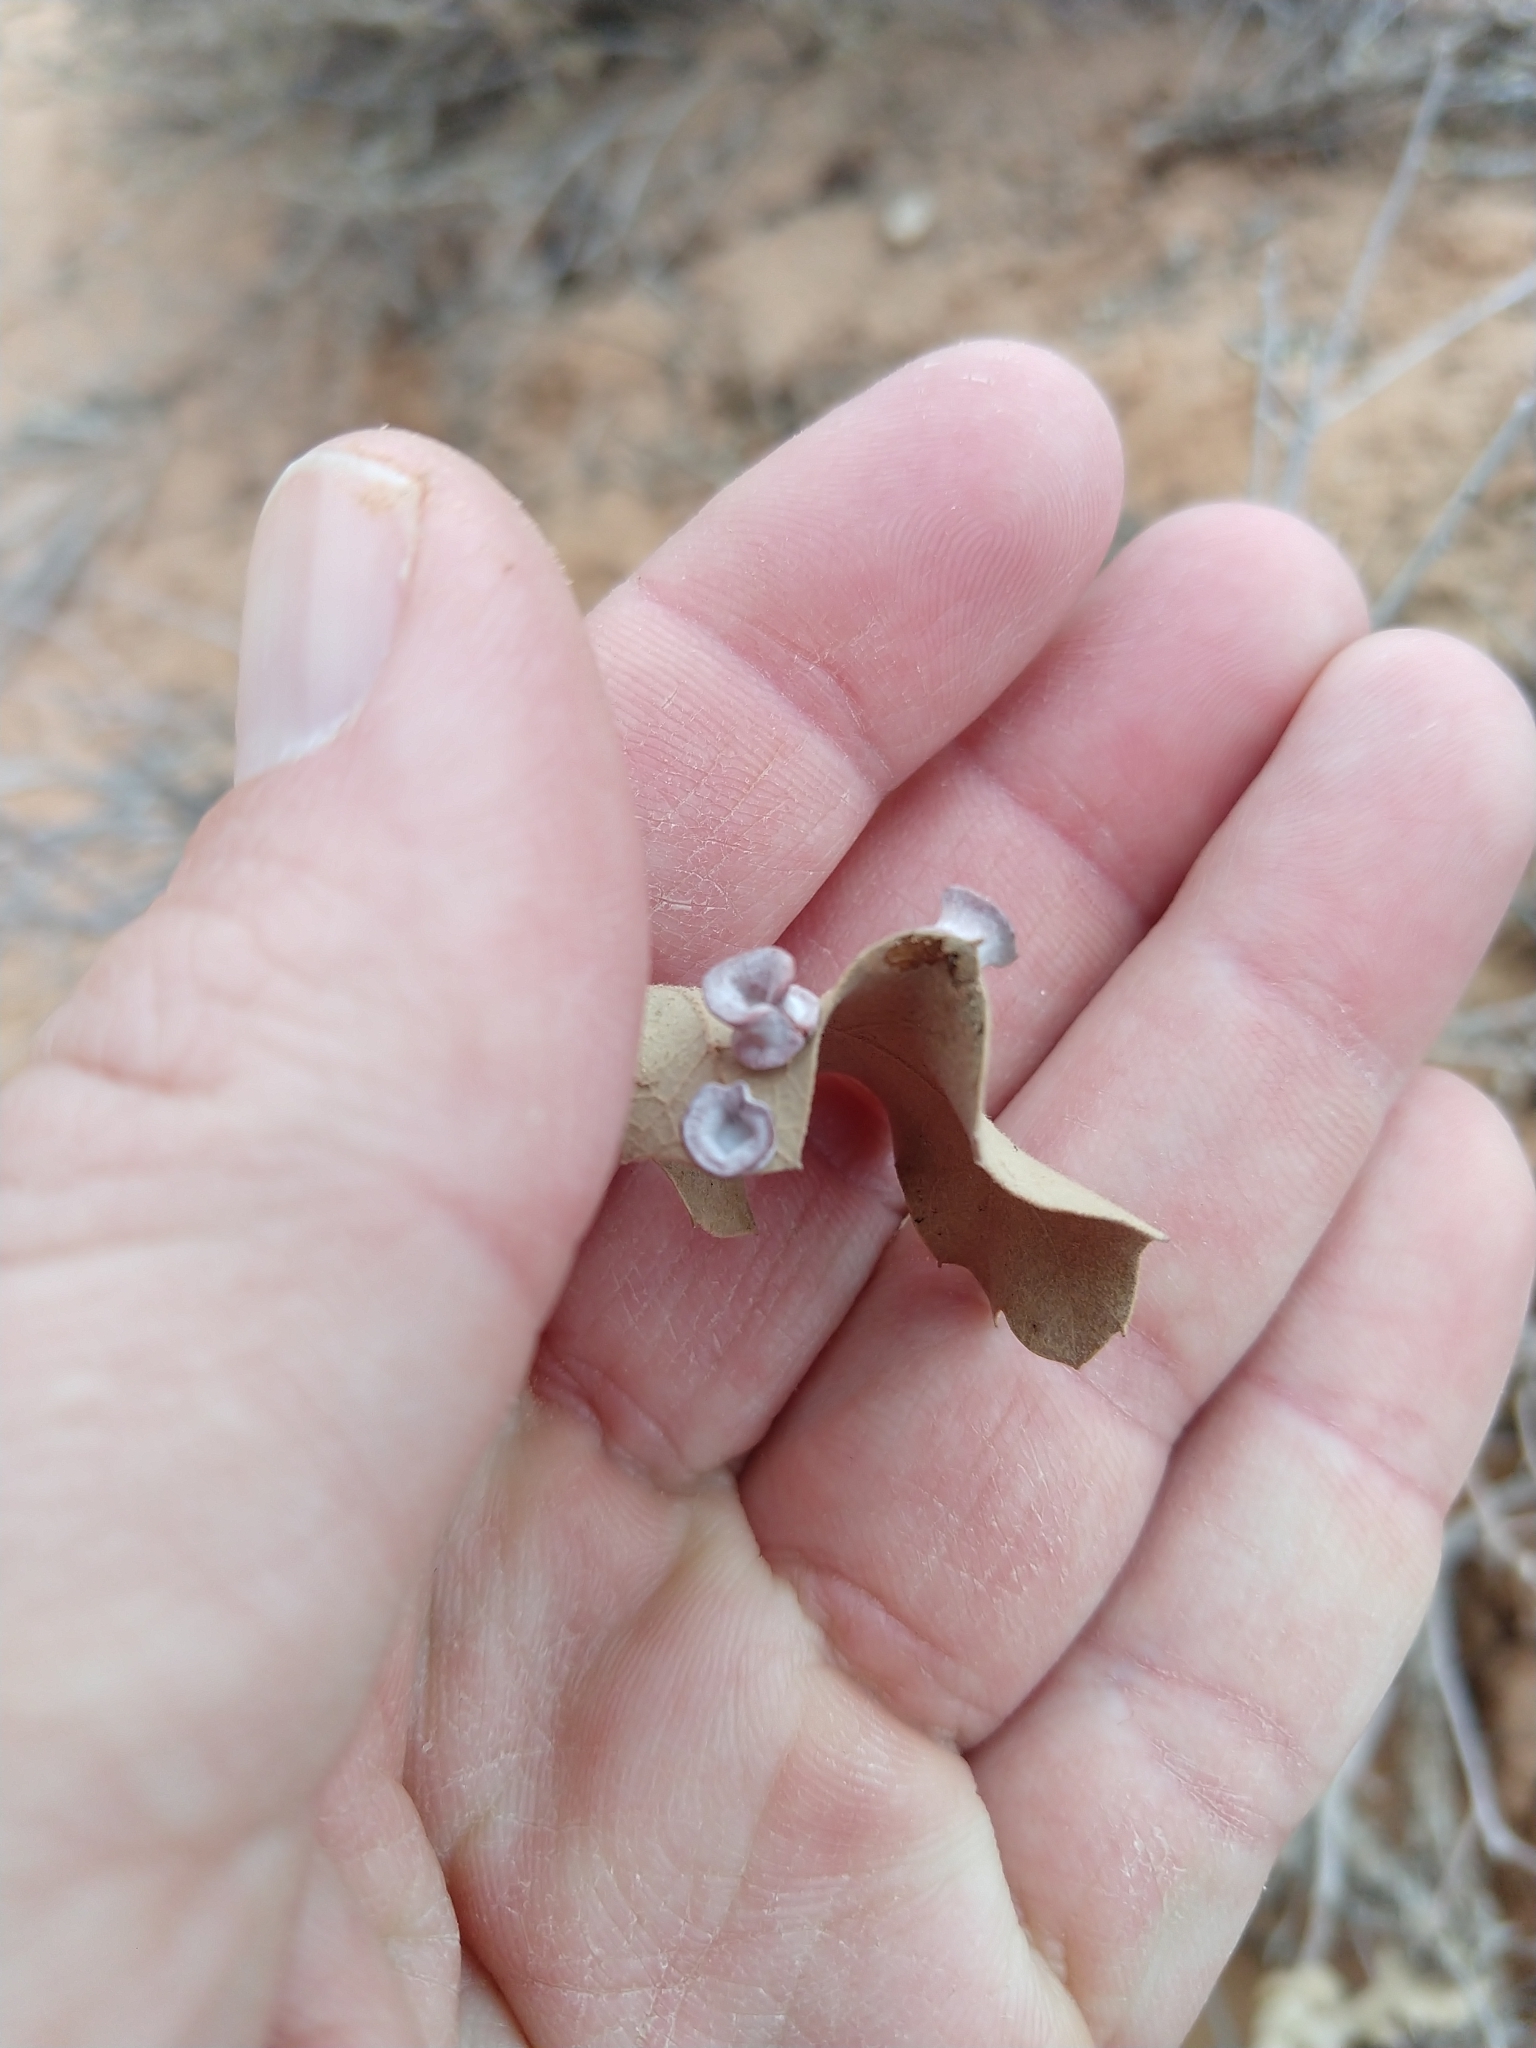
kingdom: Animalia
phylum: Arthropoda
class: Insecta
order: Hymenoptera
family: Cynipidae
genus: Andricus
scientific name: Andricus
